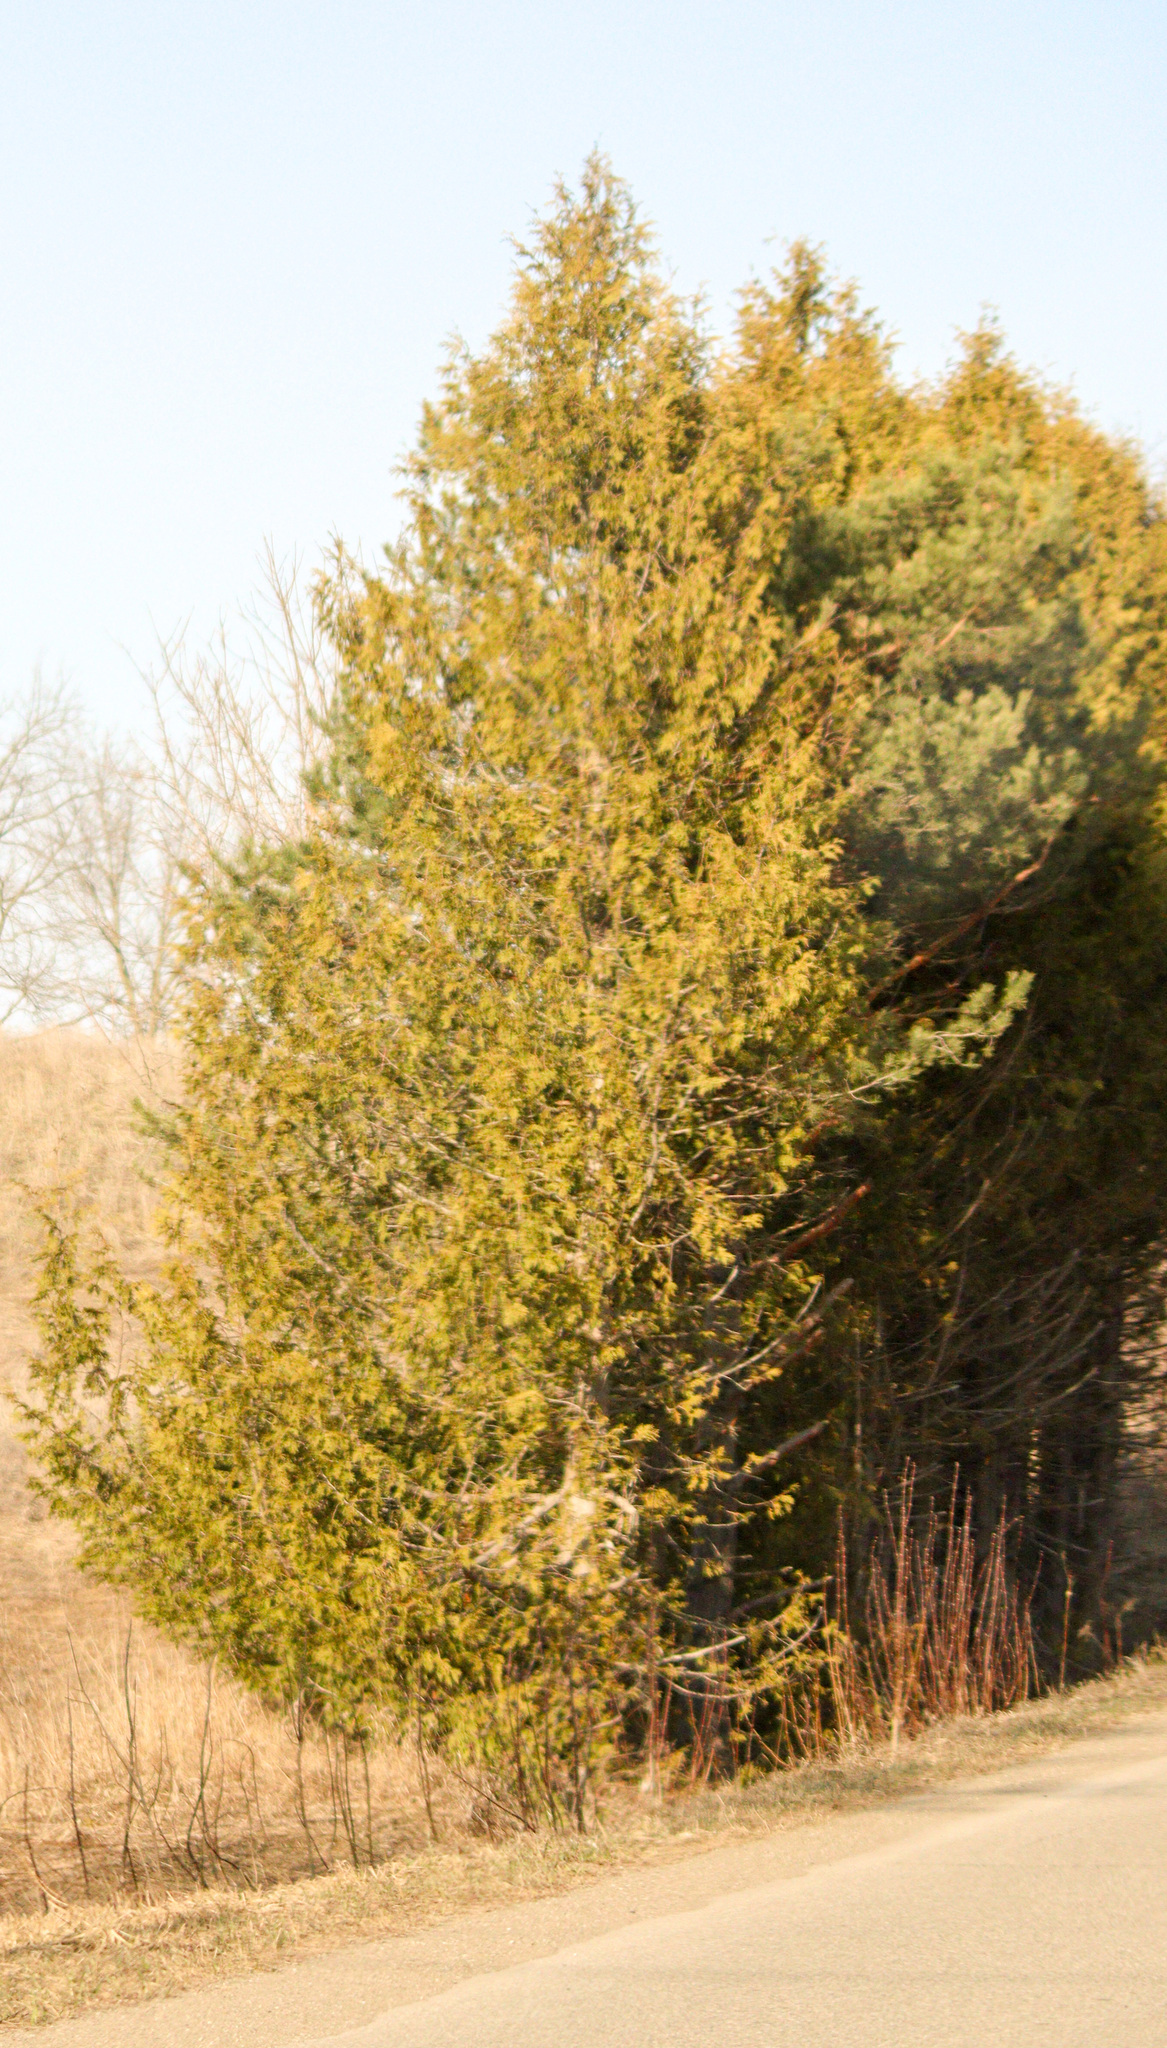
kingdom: Plantae
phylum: Tracheophyta
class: Pinopsida
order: Pinales
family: Cupressaceae
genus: Thuja
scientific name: Thuja occidentalis
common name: Northern white-cedar
